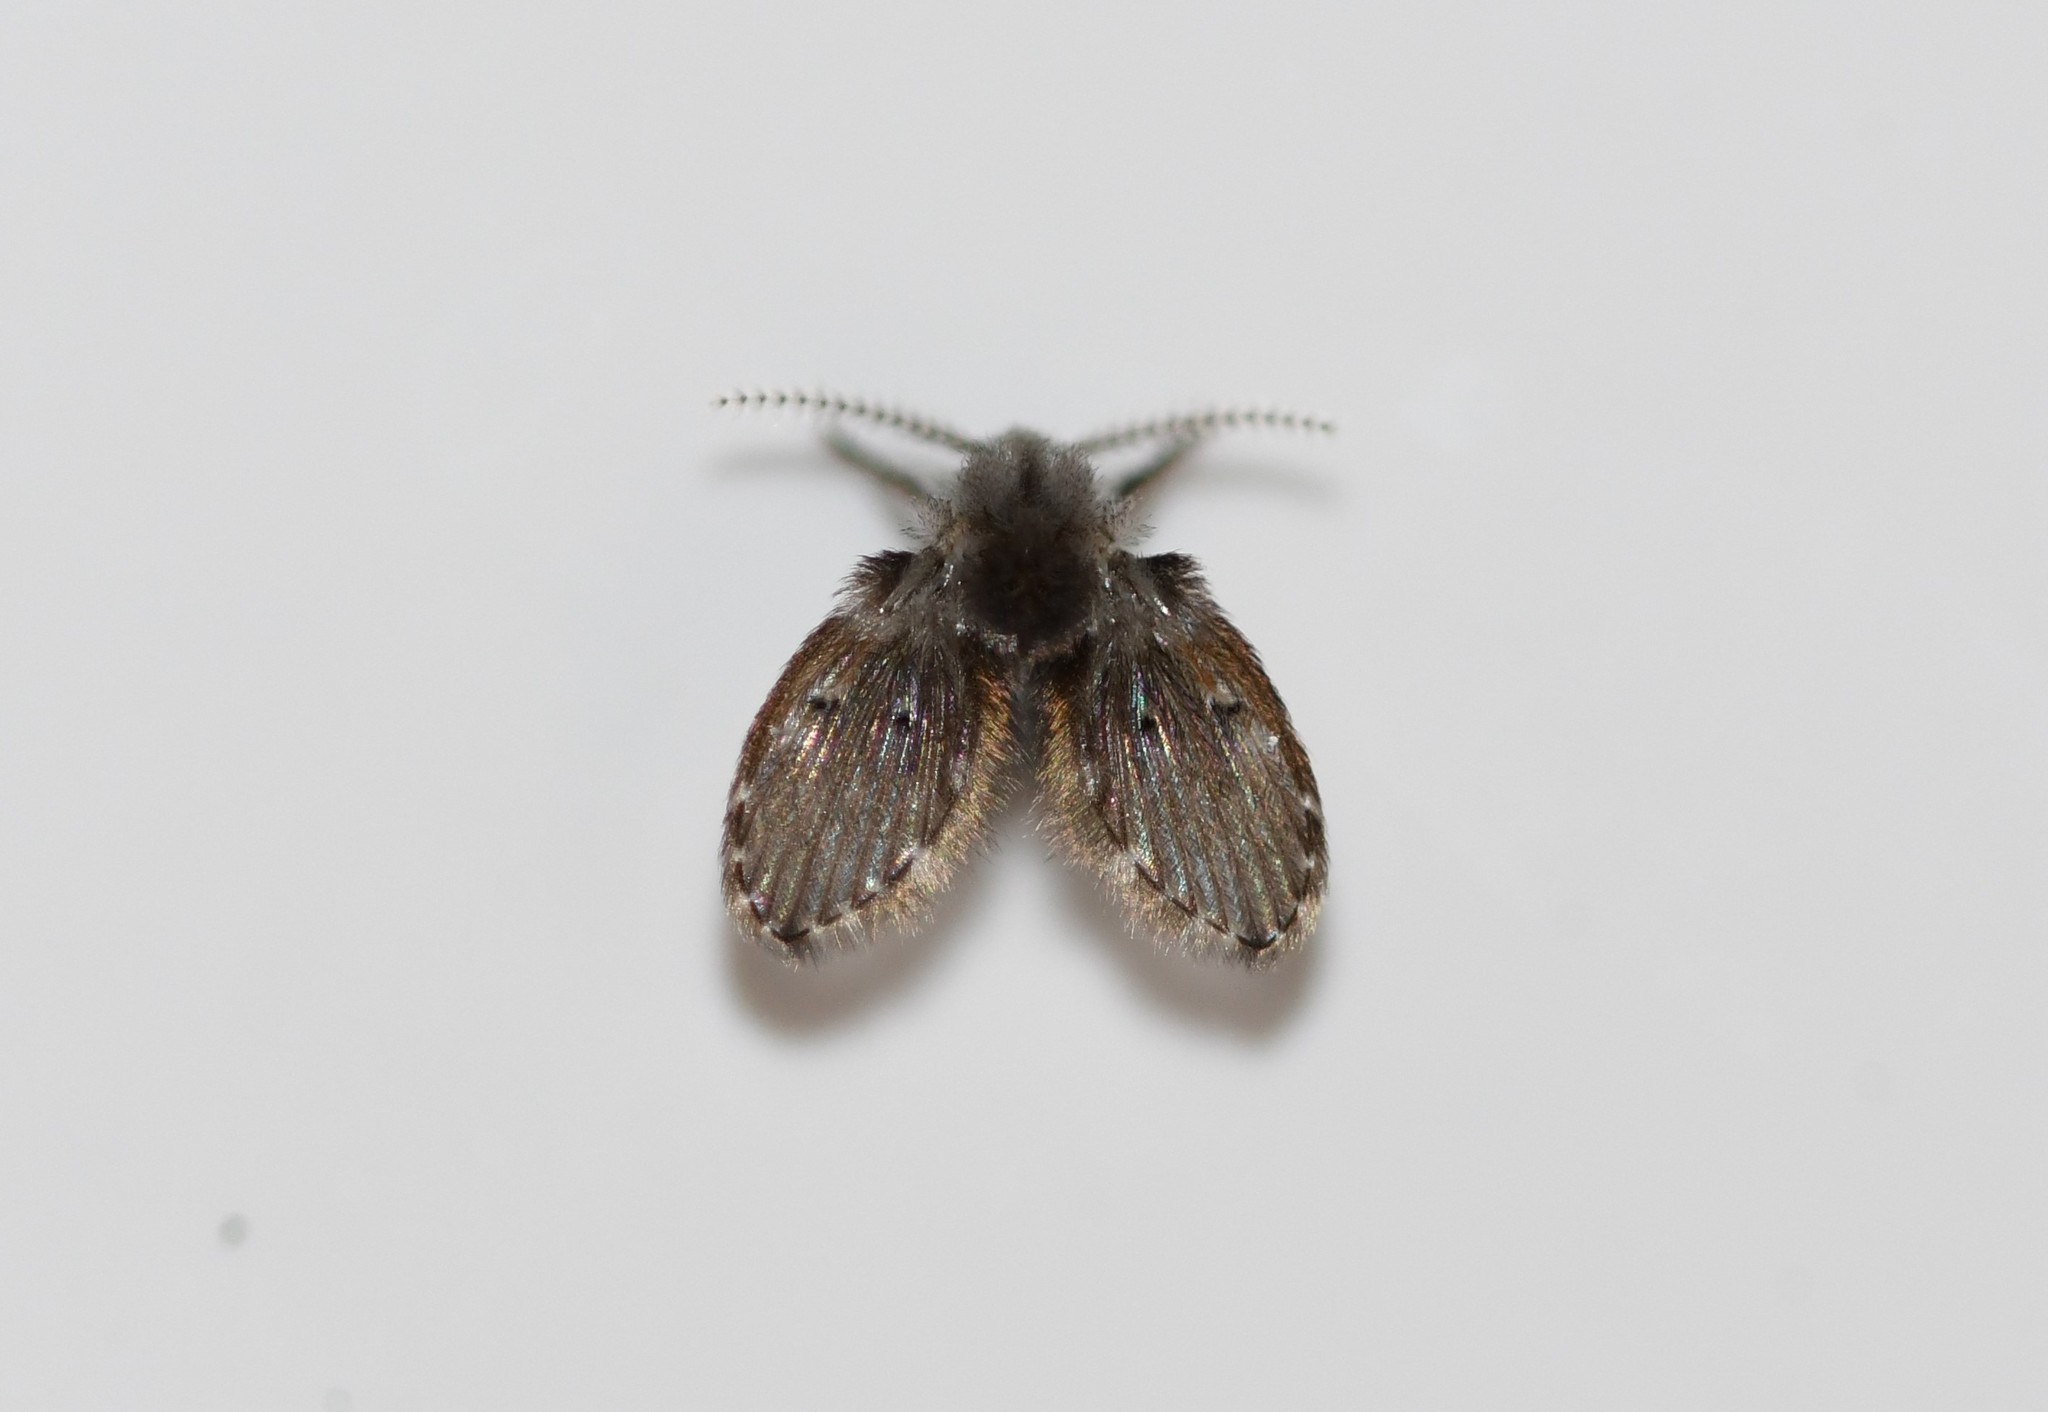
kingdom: Animalia
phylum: Arthropoda
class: Insecta
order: Diptera
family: Psychodidae
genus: Clogmia
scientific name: Clogmia albipunctatus
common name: White-spotted moth fly
